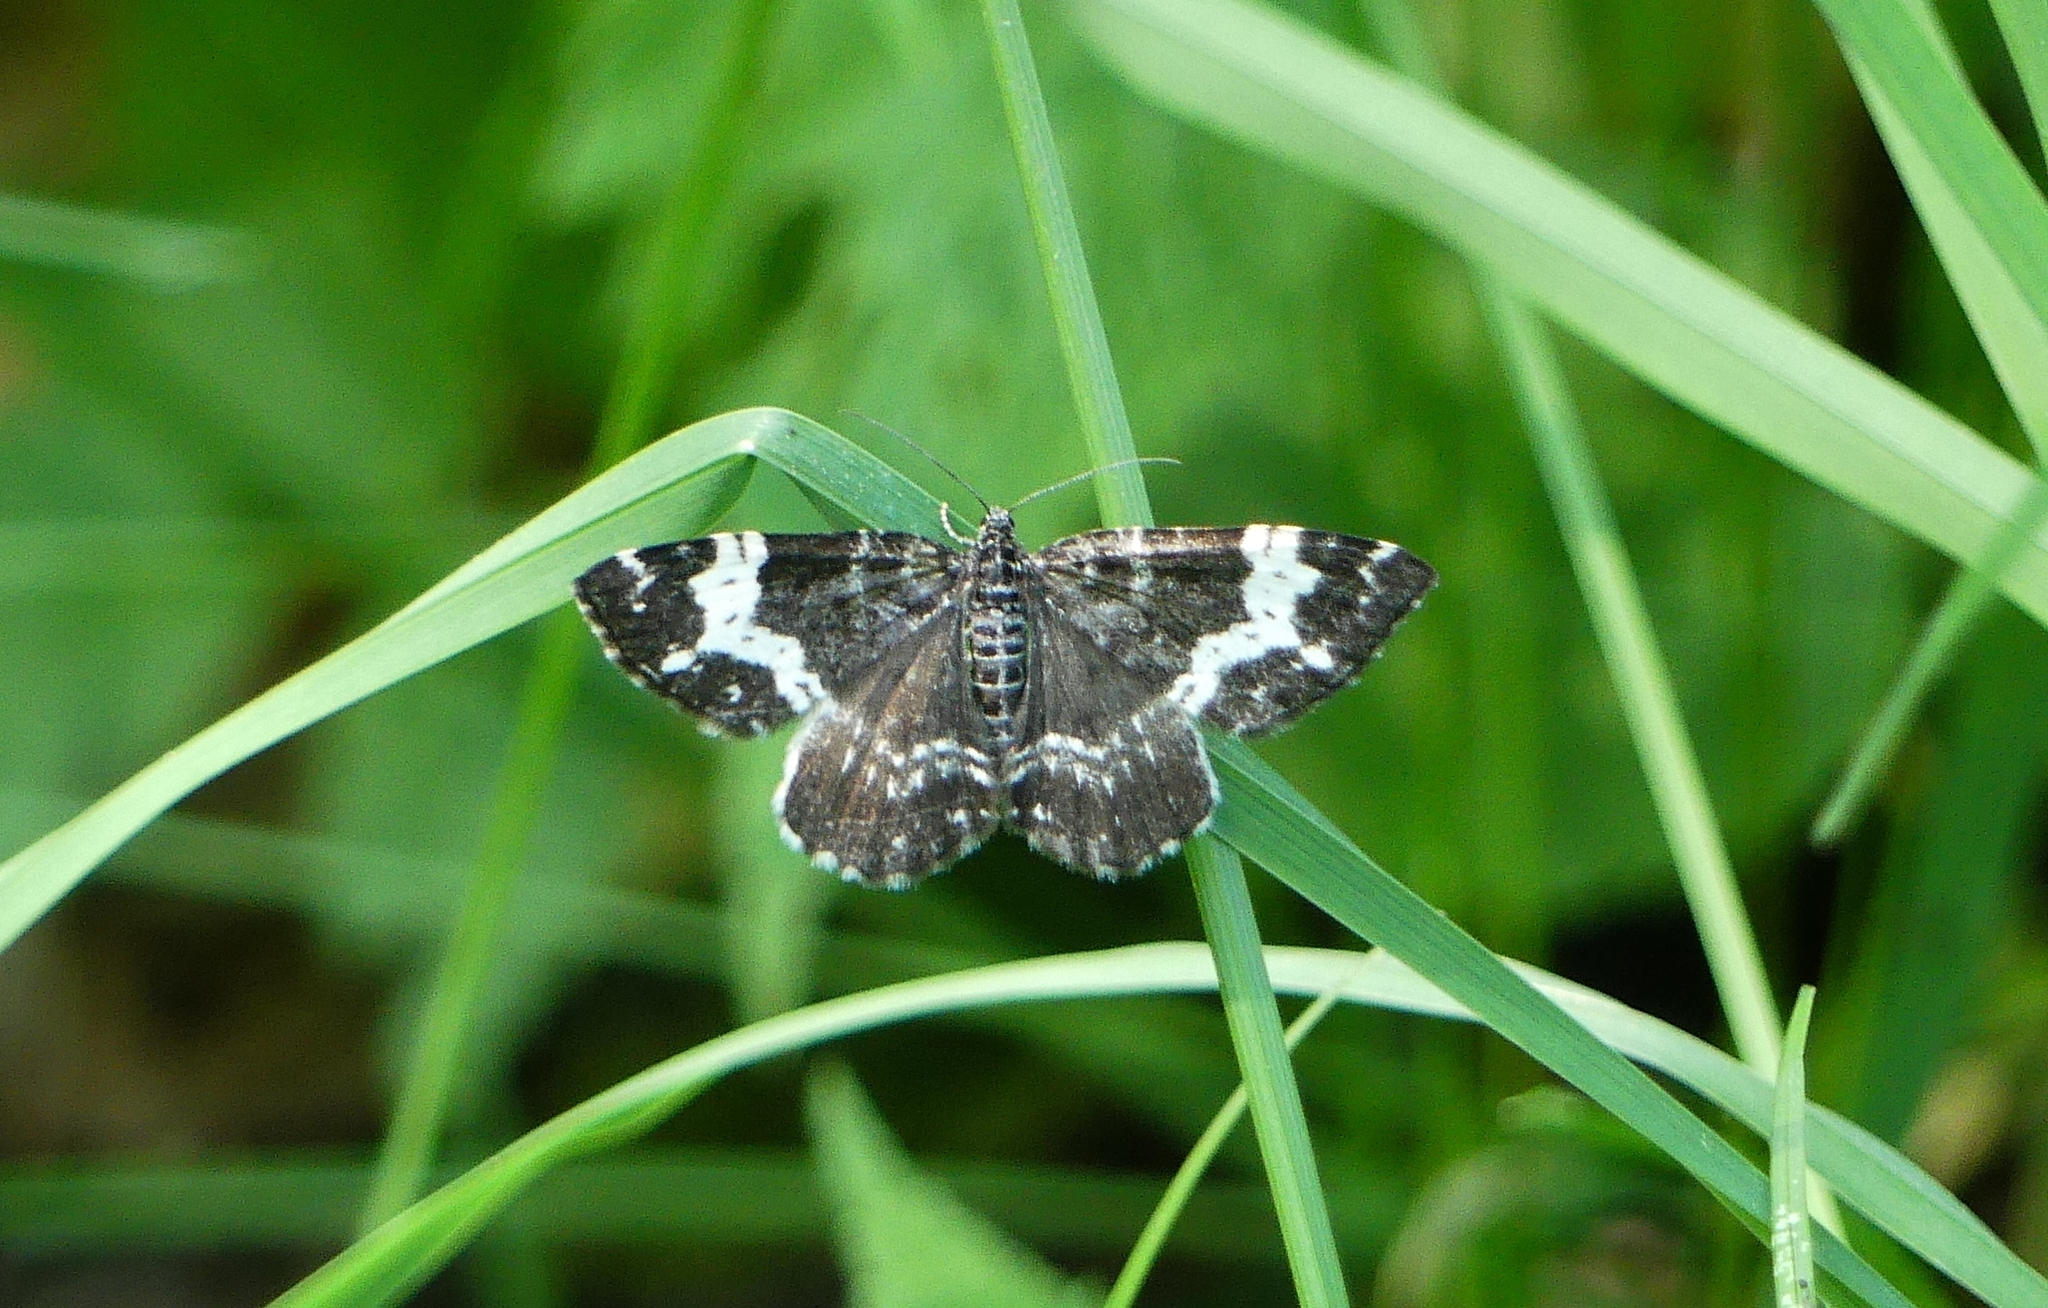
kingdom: Animalia
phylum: Arthropoda
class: Insecta
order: Lepidoptera
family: Geometridae
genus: Rheumaptera
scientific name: Rheumaptera
